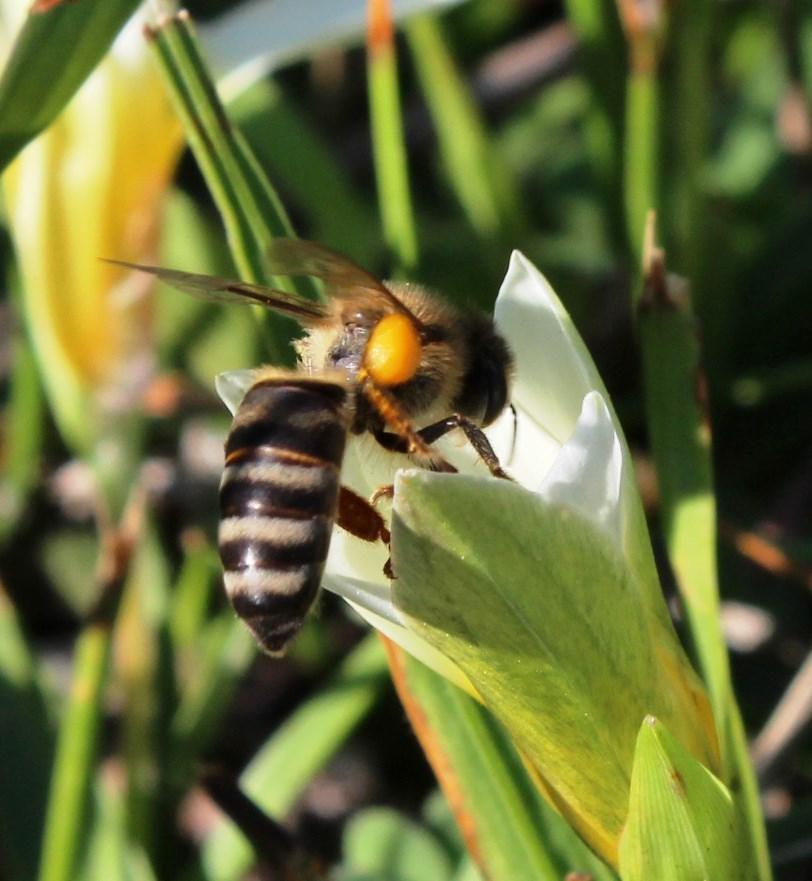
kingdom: Animalia
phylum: Arthropoda
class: Insecta
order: Hymenoptera
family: Apidae
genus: Apis
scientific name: Apis mellifera
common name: Honey bee
